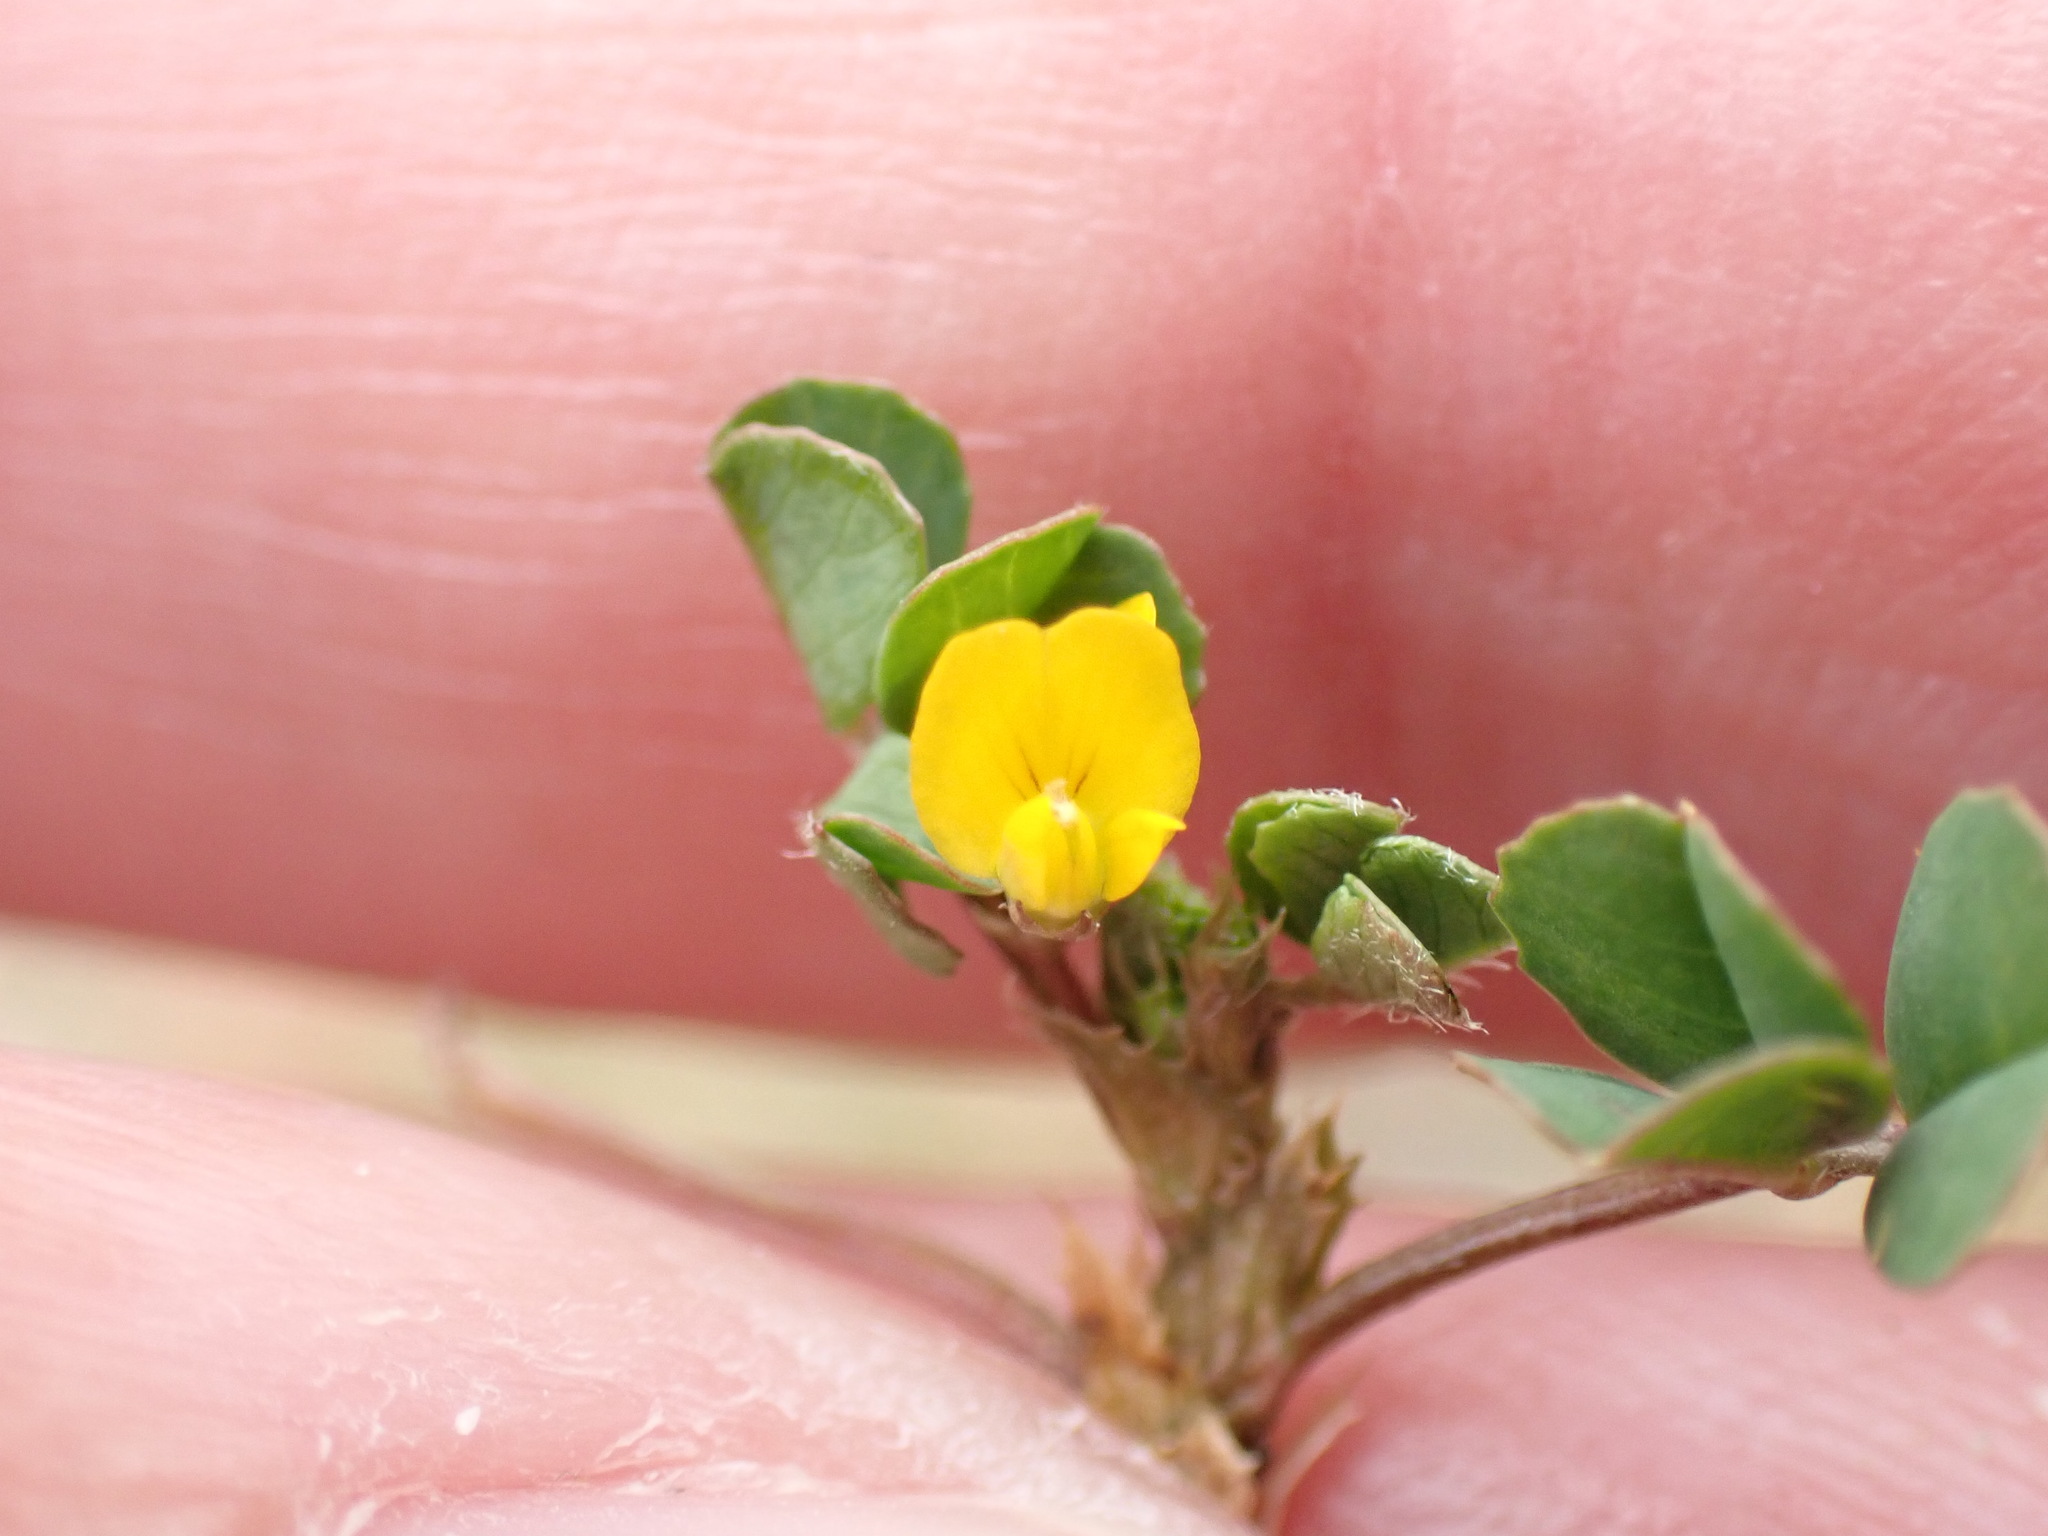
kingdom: Plantae
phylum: Tracheophyta
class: Magnoliopsida
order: Fabales
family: Fabaceae
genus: Medicago
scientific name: Medicago polymorpha
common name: Burclover
